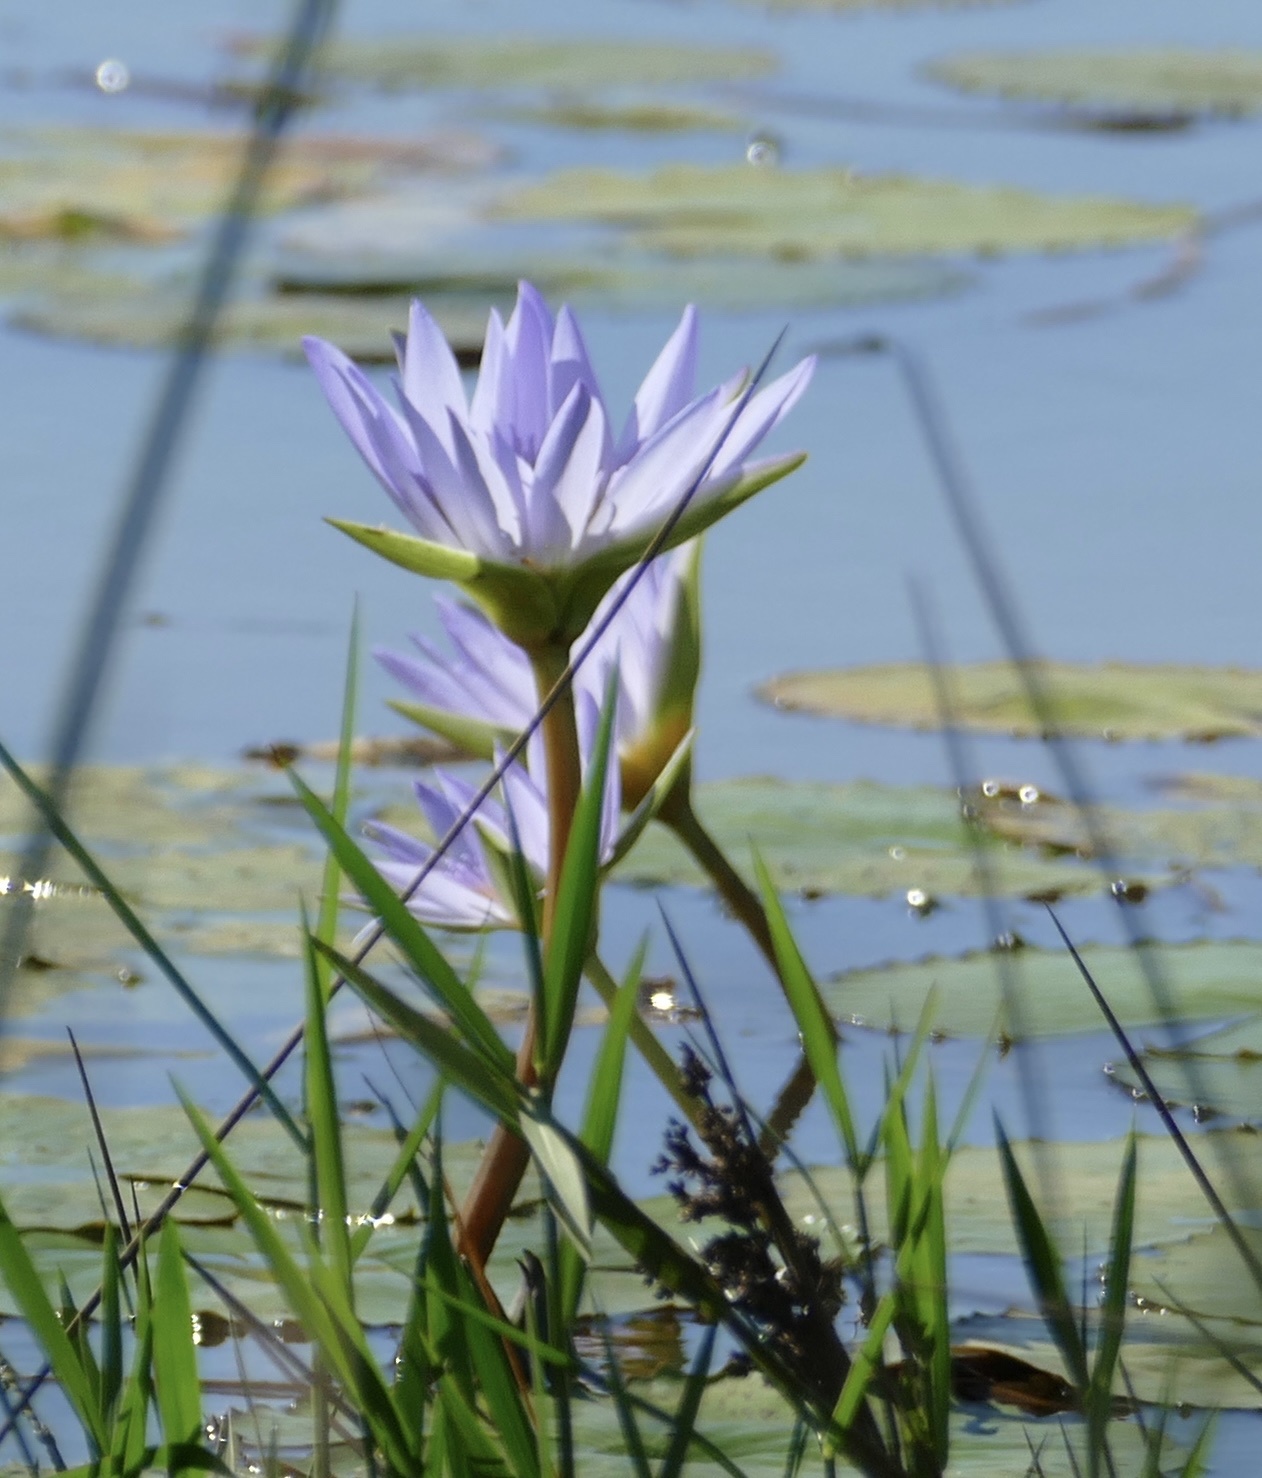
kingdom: Plantae
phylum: Tracheophyta
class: Magnoliopsida
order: Nymphaeales
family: Nymphaeaceae
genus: Nymphaea
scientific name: Nymphaea nouchali
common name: Blue lotus
